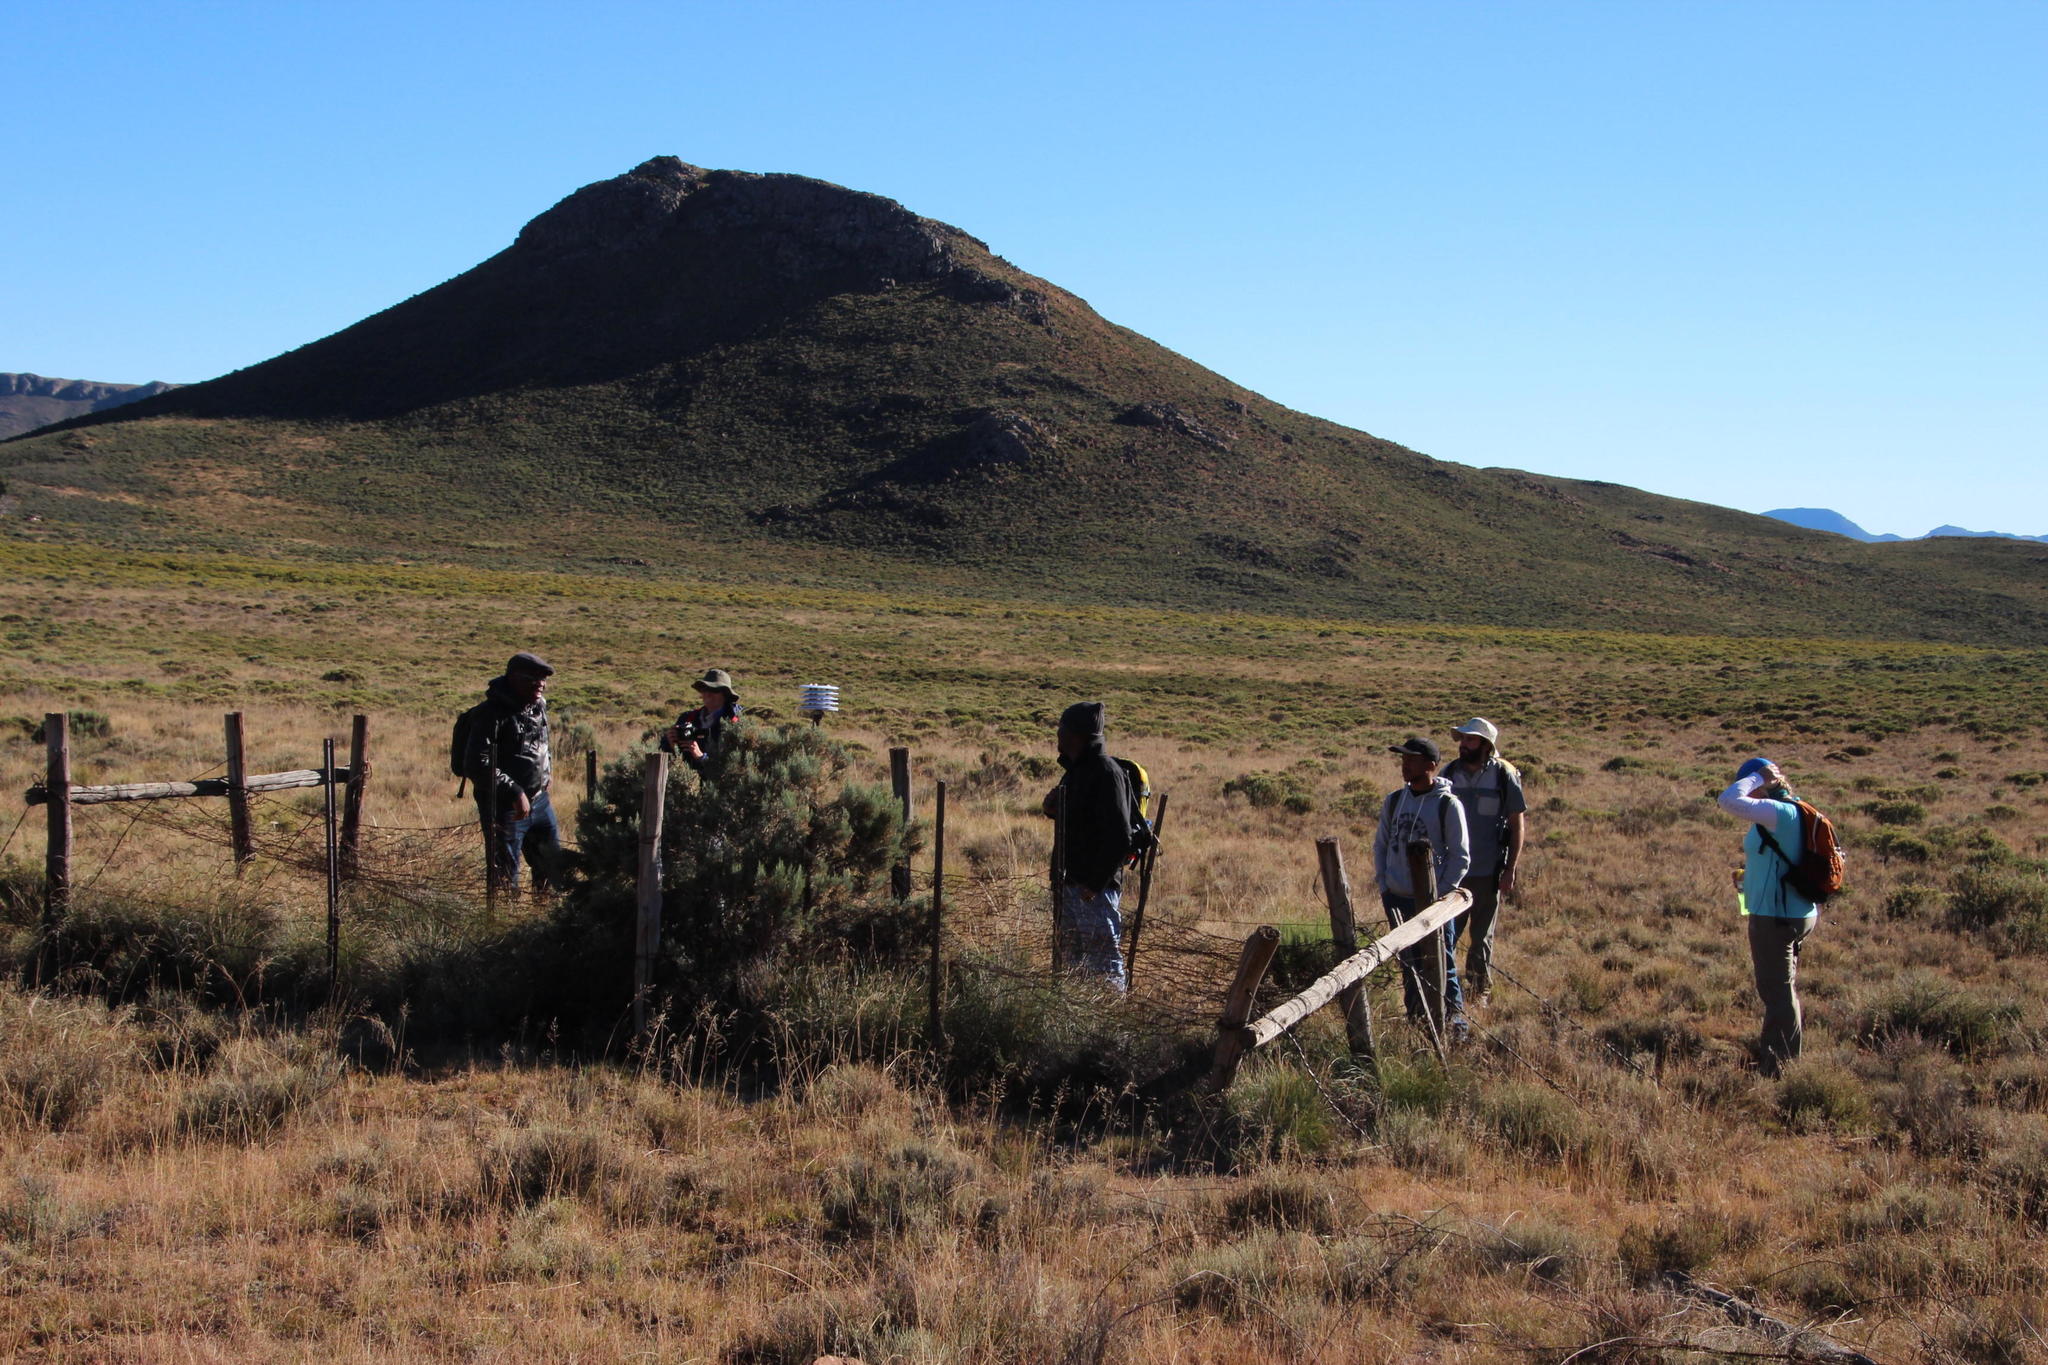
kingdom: Plantae
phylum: Tracheophyta
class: Magnoliopsida
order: Asterales
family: Asteraceae
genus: Dicerothamnus
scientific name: Dicerothamnus rhinocerotis
